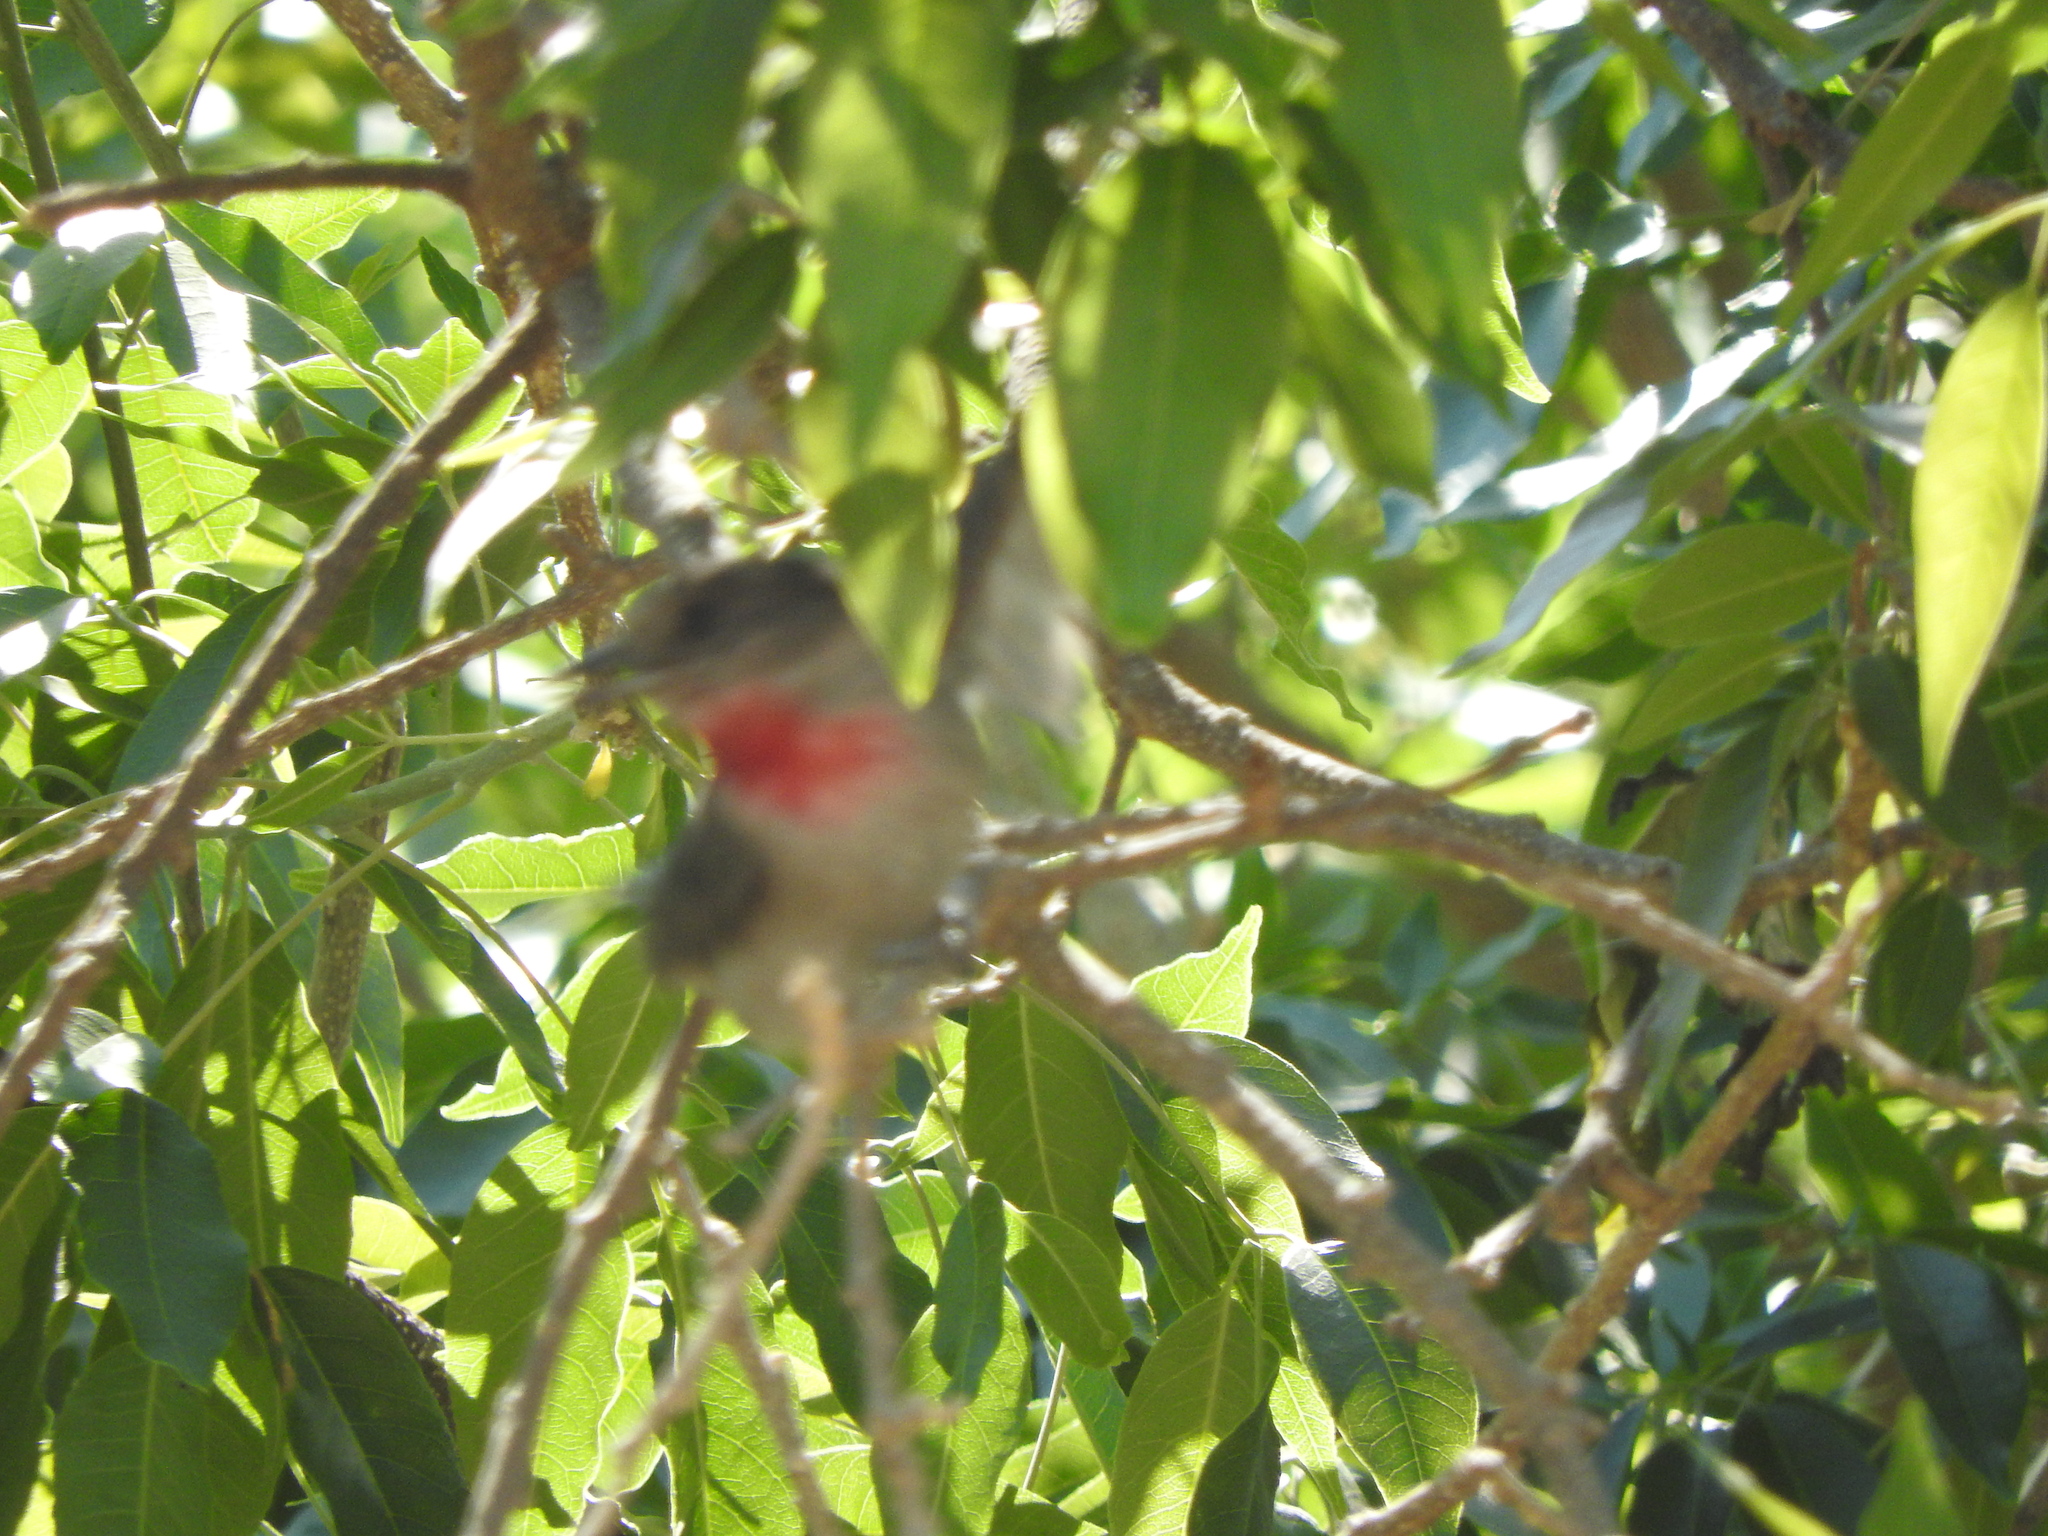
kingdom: Animalia
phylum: Chordata
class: Aves
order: Passeriformes
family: Cotingidae
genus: Pachyramphus
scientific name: Pachyramphus aglaiae
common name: Rose-throated becard
